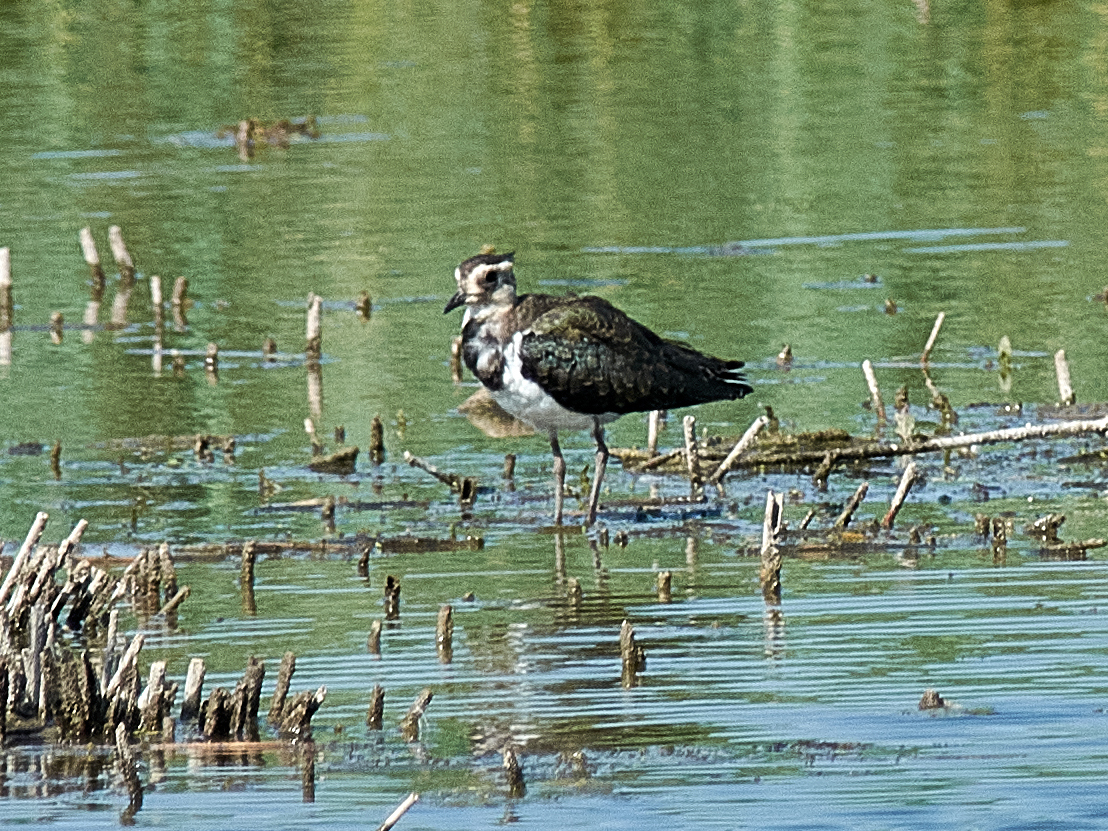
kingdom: Animalia
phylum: Chordata
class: Aves
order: Charadriiformes
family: Charadriidae
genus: Vanellus
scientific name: Vanellus vanellus
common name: Northern lapwing
